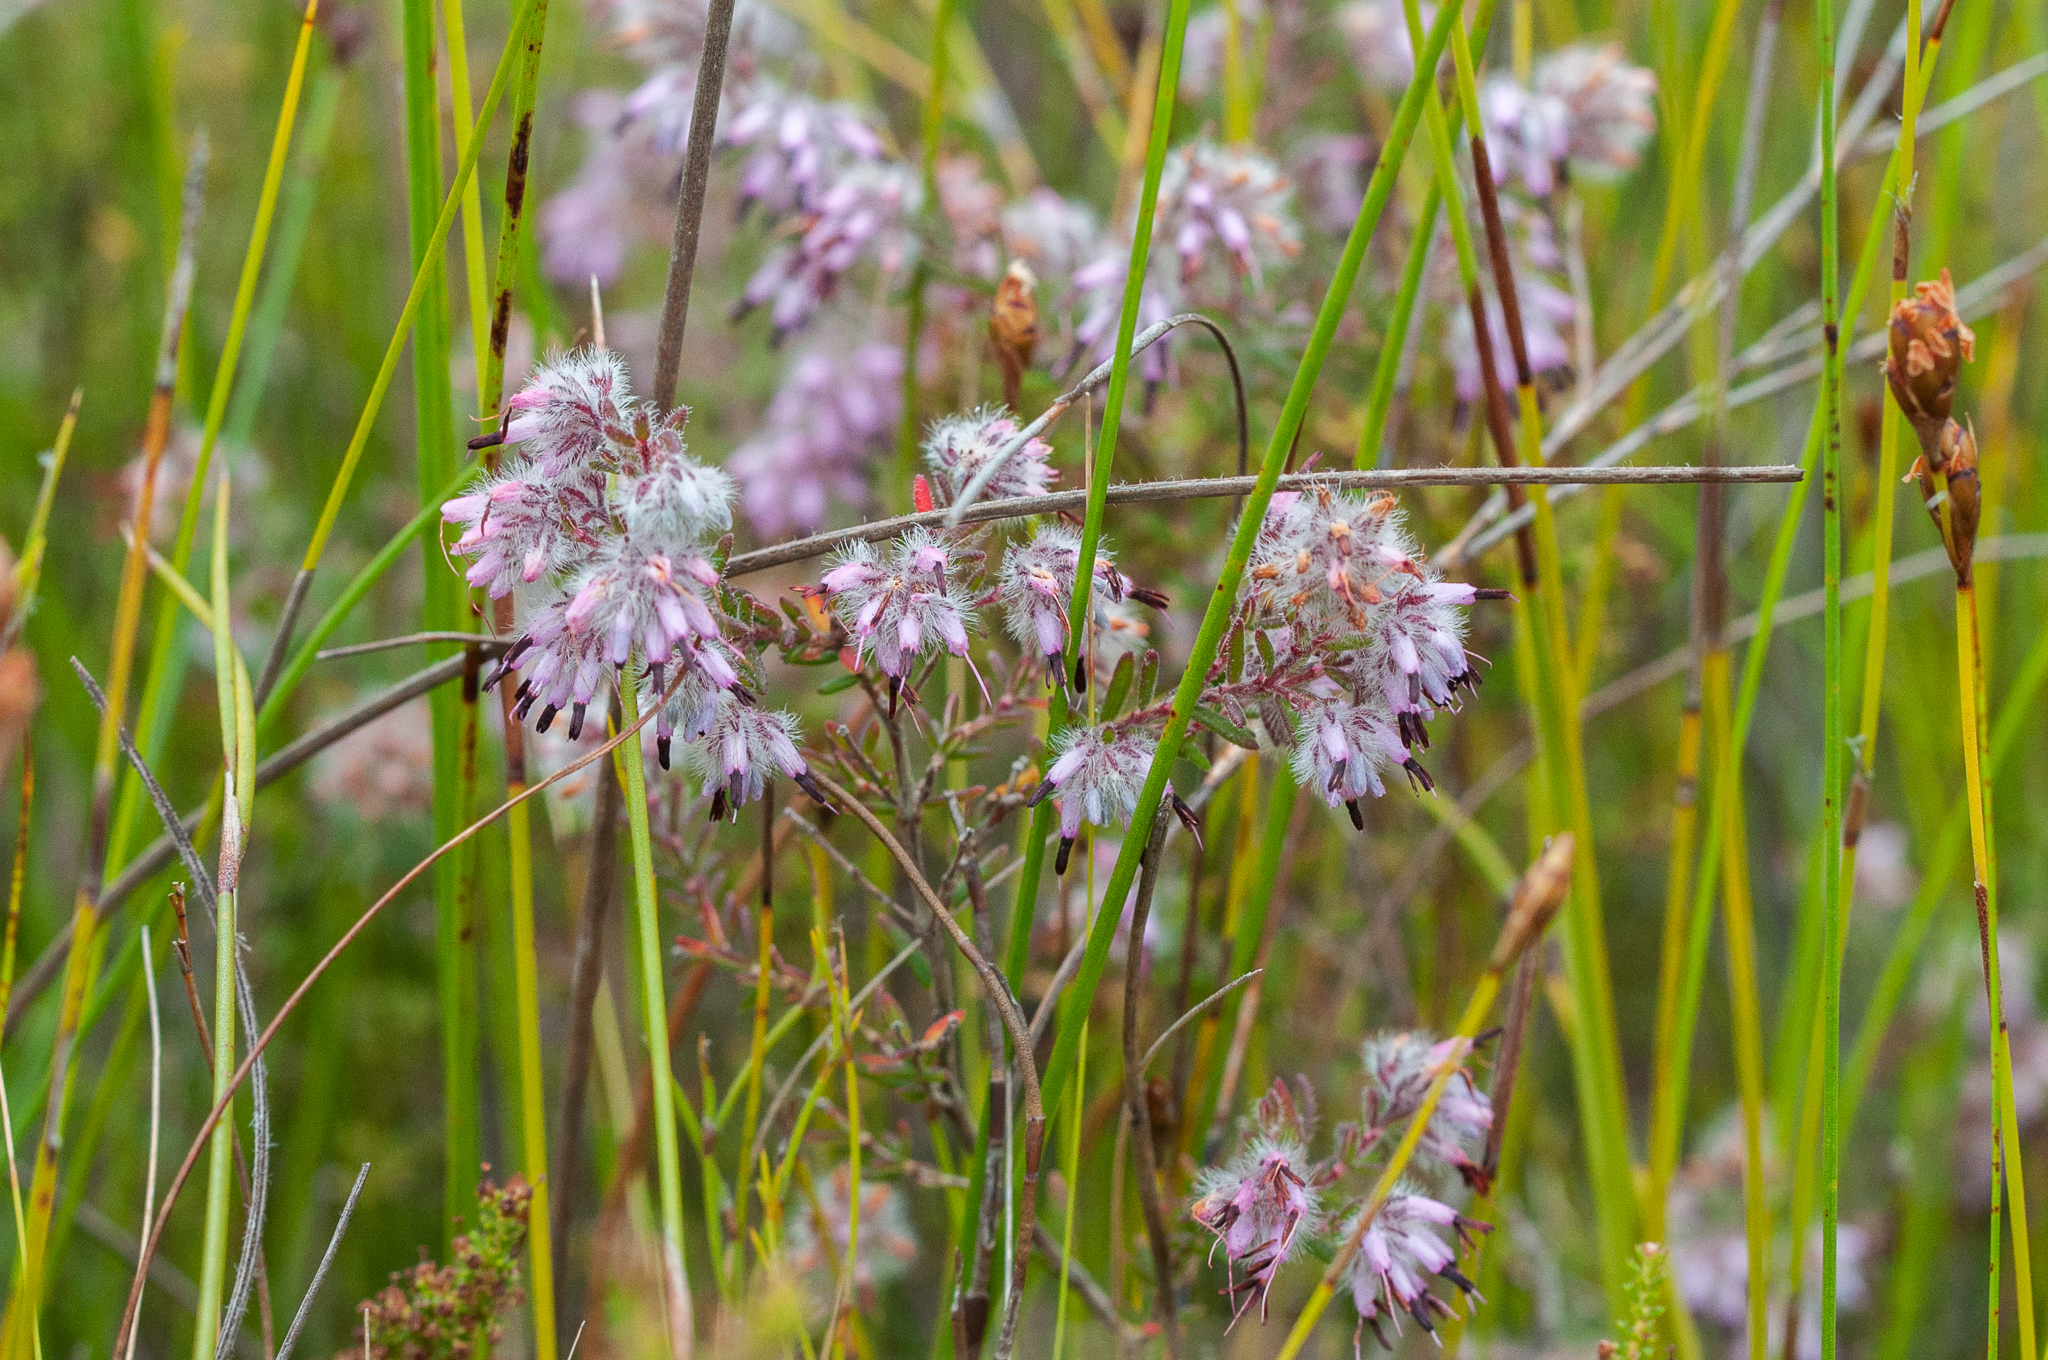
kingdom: Plantae
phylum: Tracheophyta
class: Magnoliopsida
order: Ericales
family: Ericaceae
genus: Erica
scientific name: Erica eriocephala
